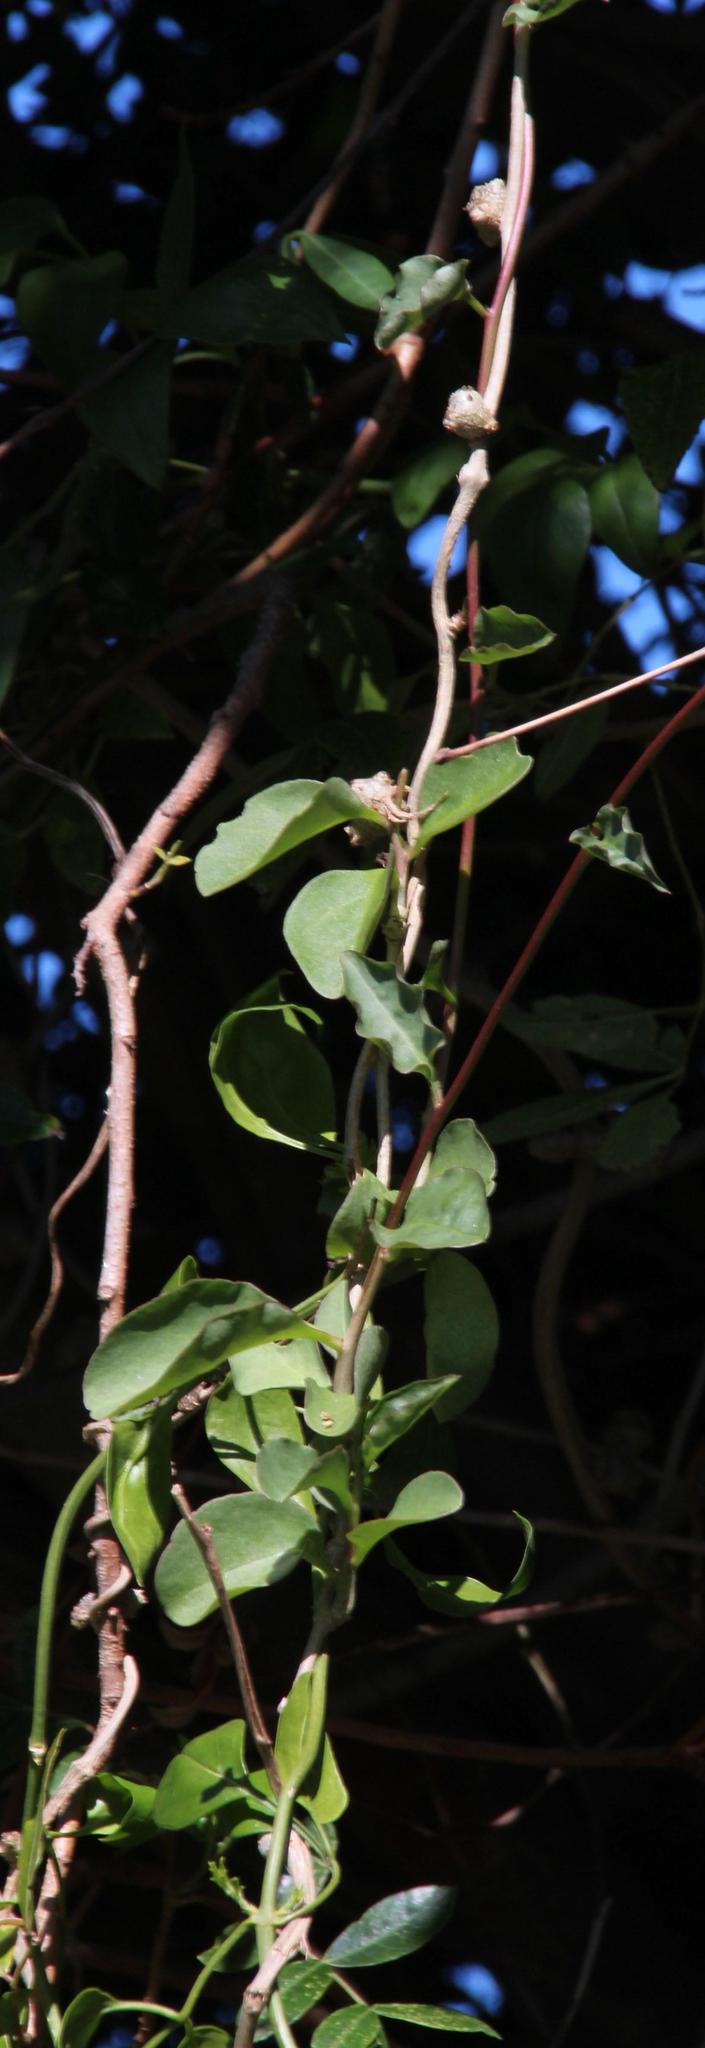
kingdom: Plantae
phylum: Tracheophyta
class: Magnoliopsida
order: Caryophyllales
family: Basellaceae
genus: Anredera
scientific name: Anredera cordifolia
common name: Heartleaf madeiravine
